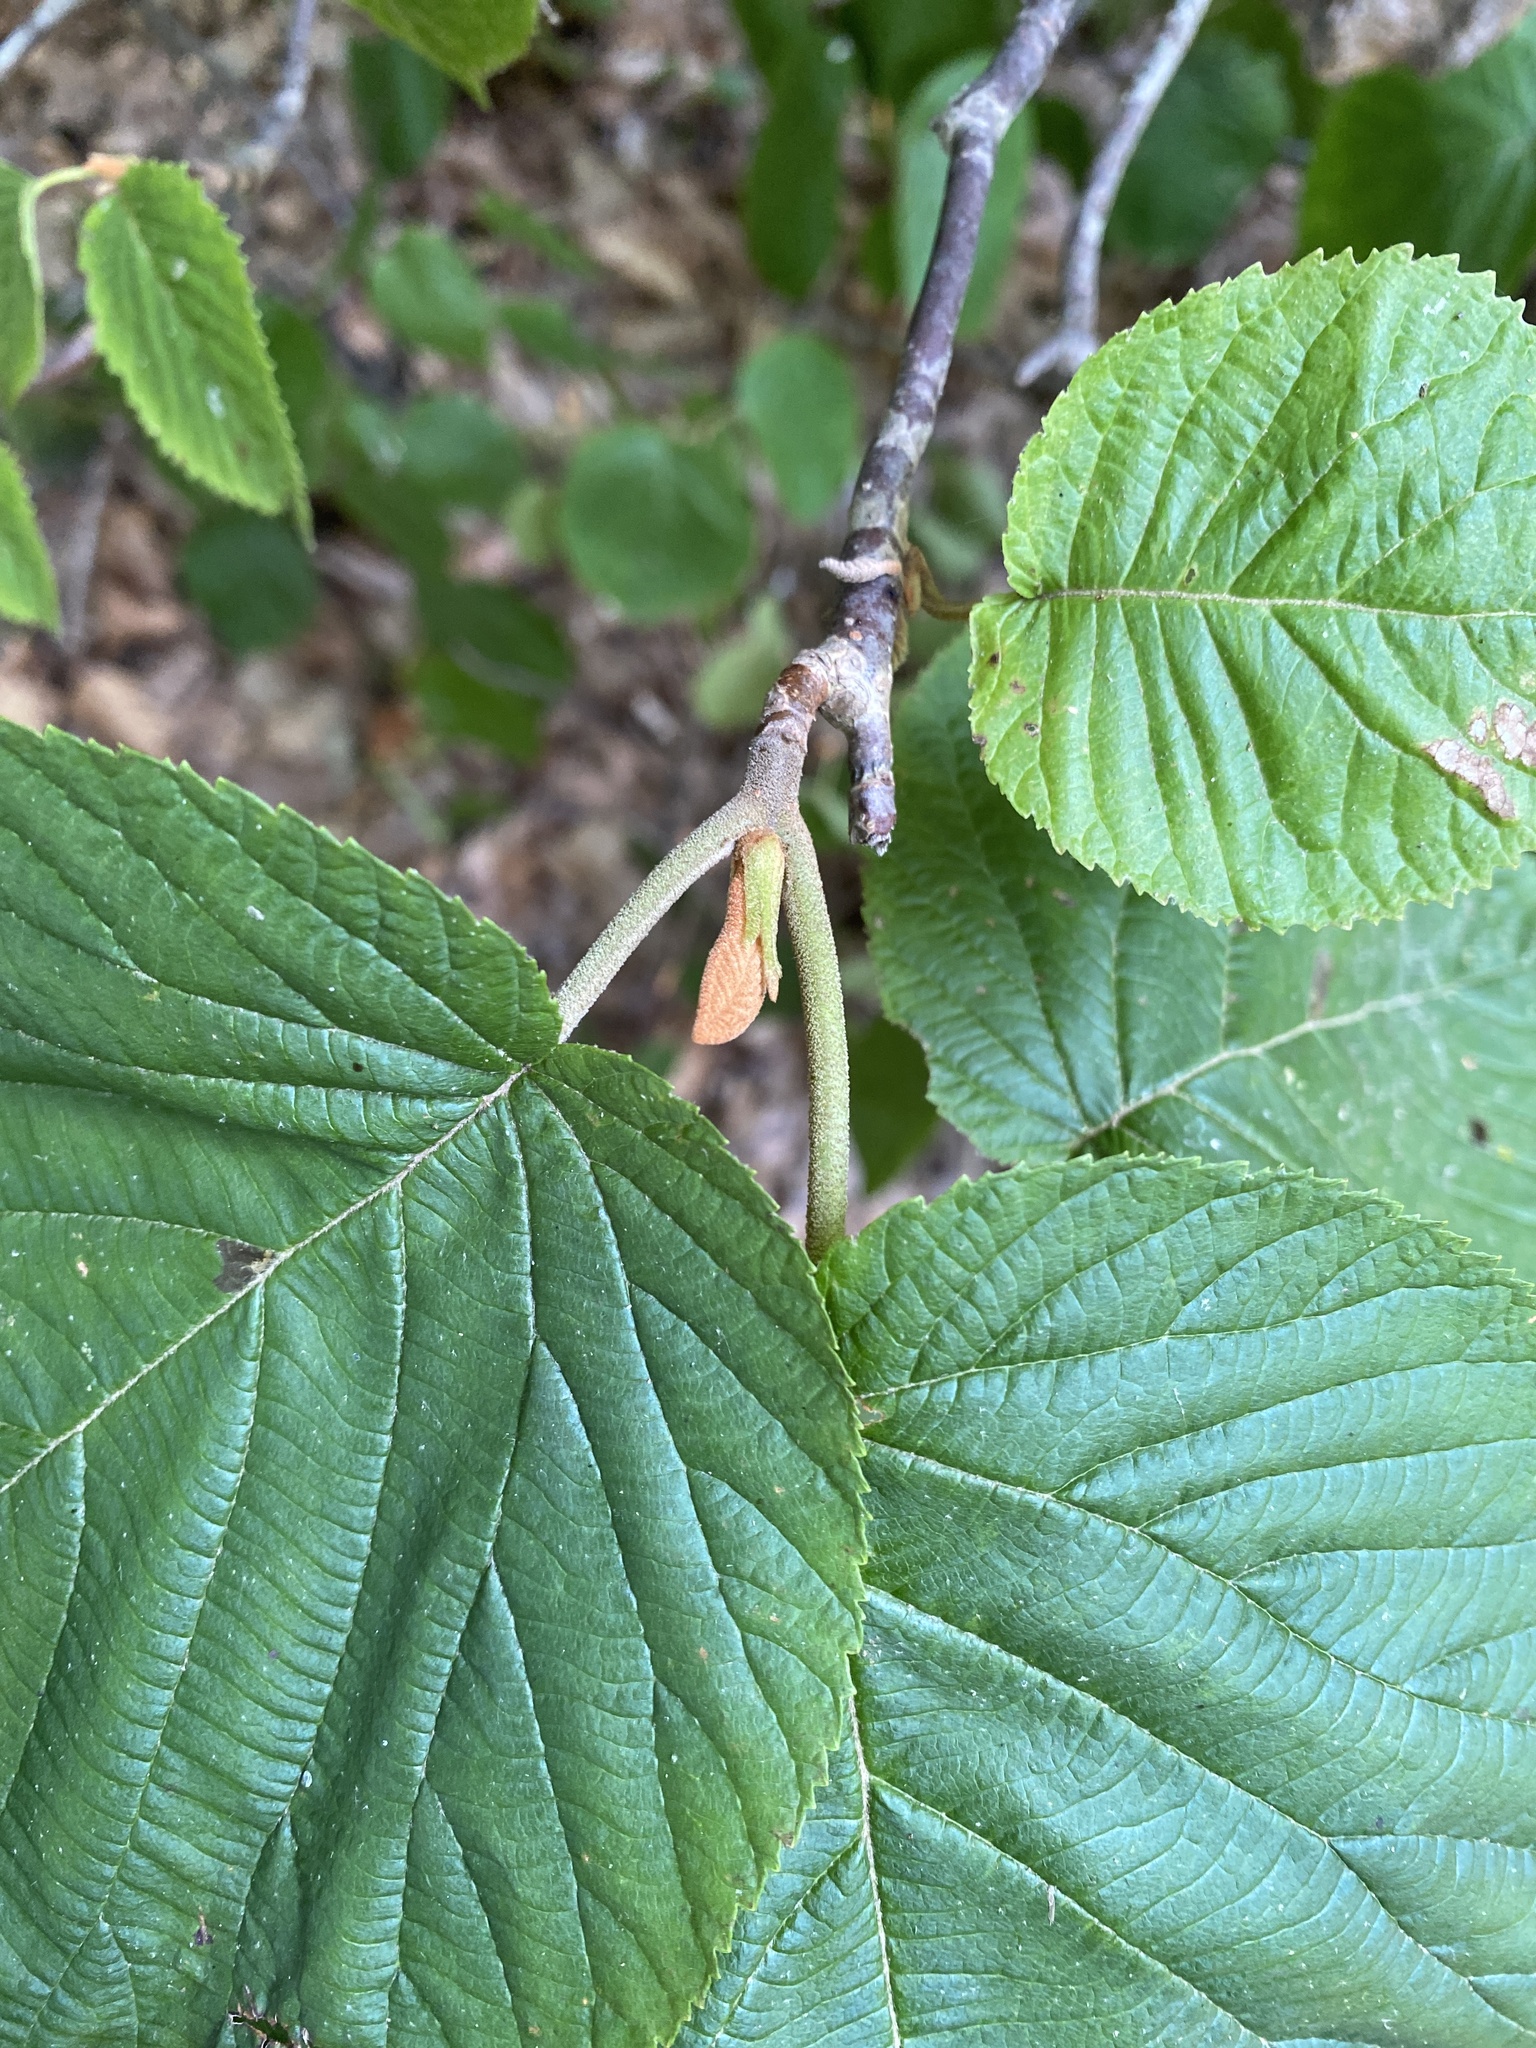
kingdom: Plantae
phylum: Tracheophyta
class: Magnoliopsida
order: Dipsacales
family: Viburnaceae
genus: Viburnum
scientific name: Viburnum lantanoides
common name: Hobblebush
